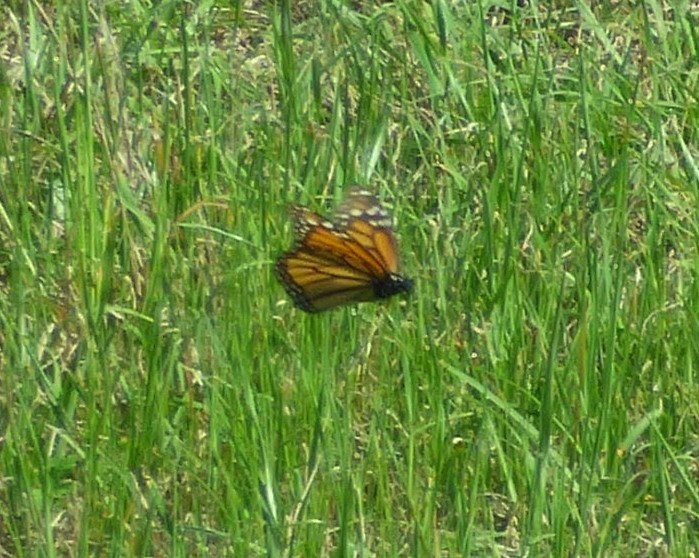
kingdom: Animalia
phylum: Arthropoda
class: Insecta
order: Lepidoptera
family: Nymphalidae
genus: Danaus
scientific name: Danaus plexippus
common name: Monarch
